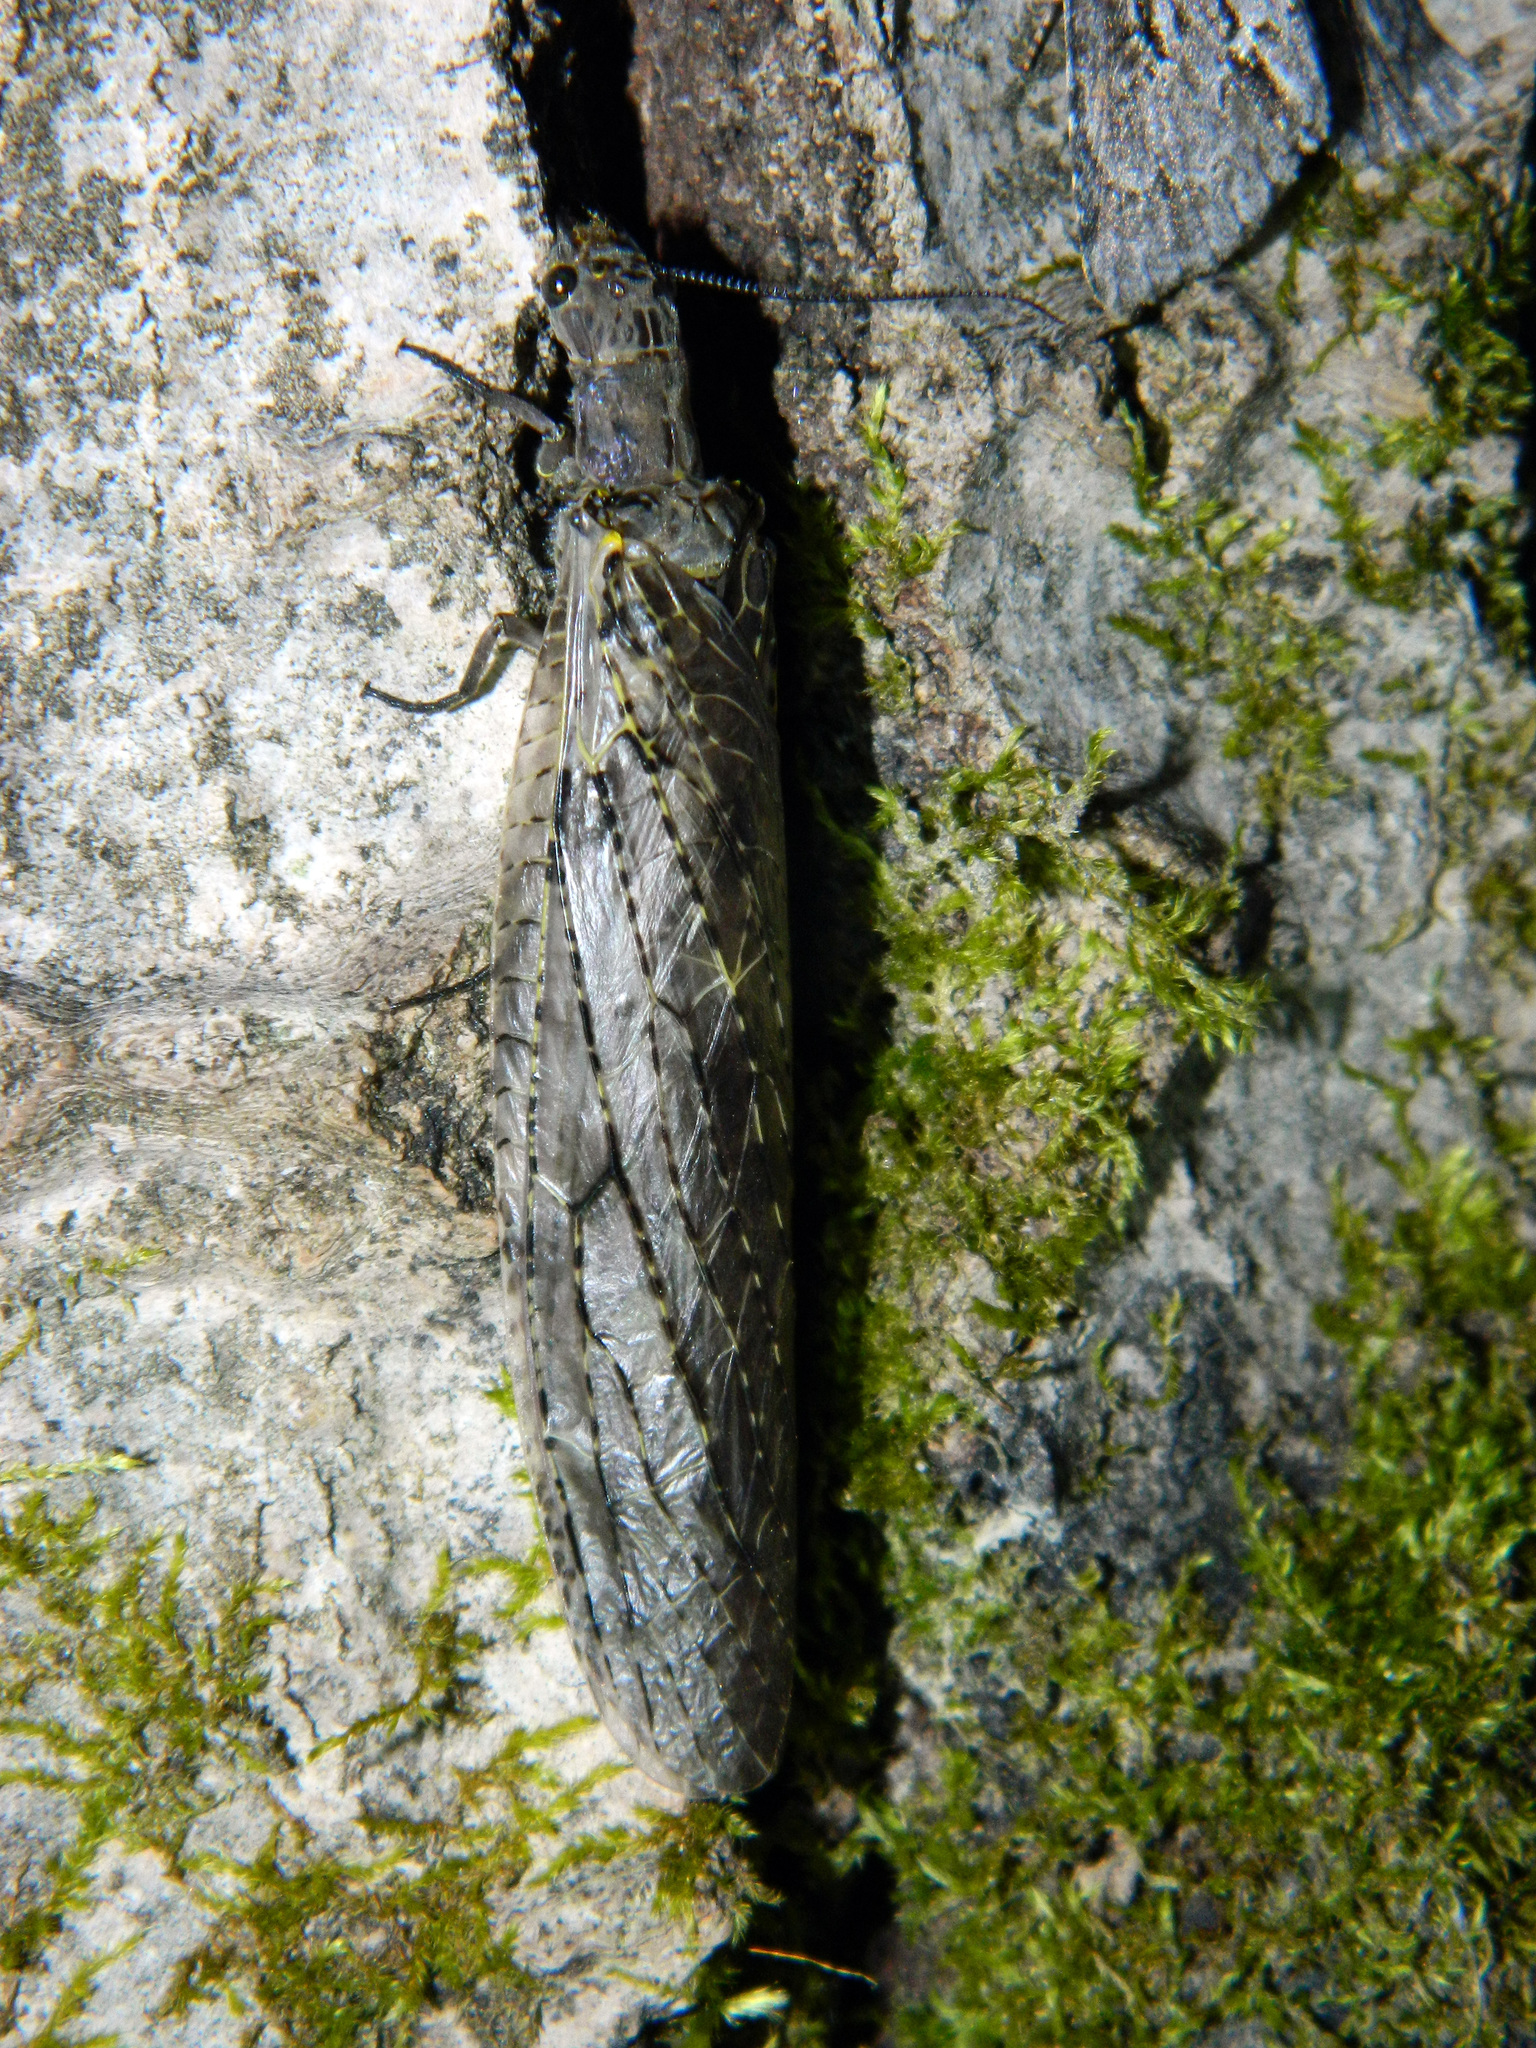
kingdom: Animalia
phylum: Arthropoda
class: Insecta
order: Megaloptera
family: Corydalidae
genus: Chauliodes
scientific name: Chauliodes rastricornis
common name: Spring fishfly
